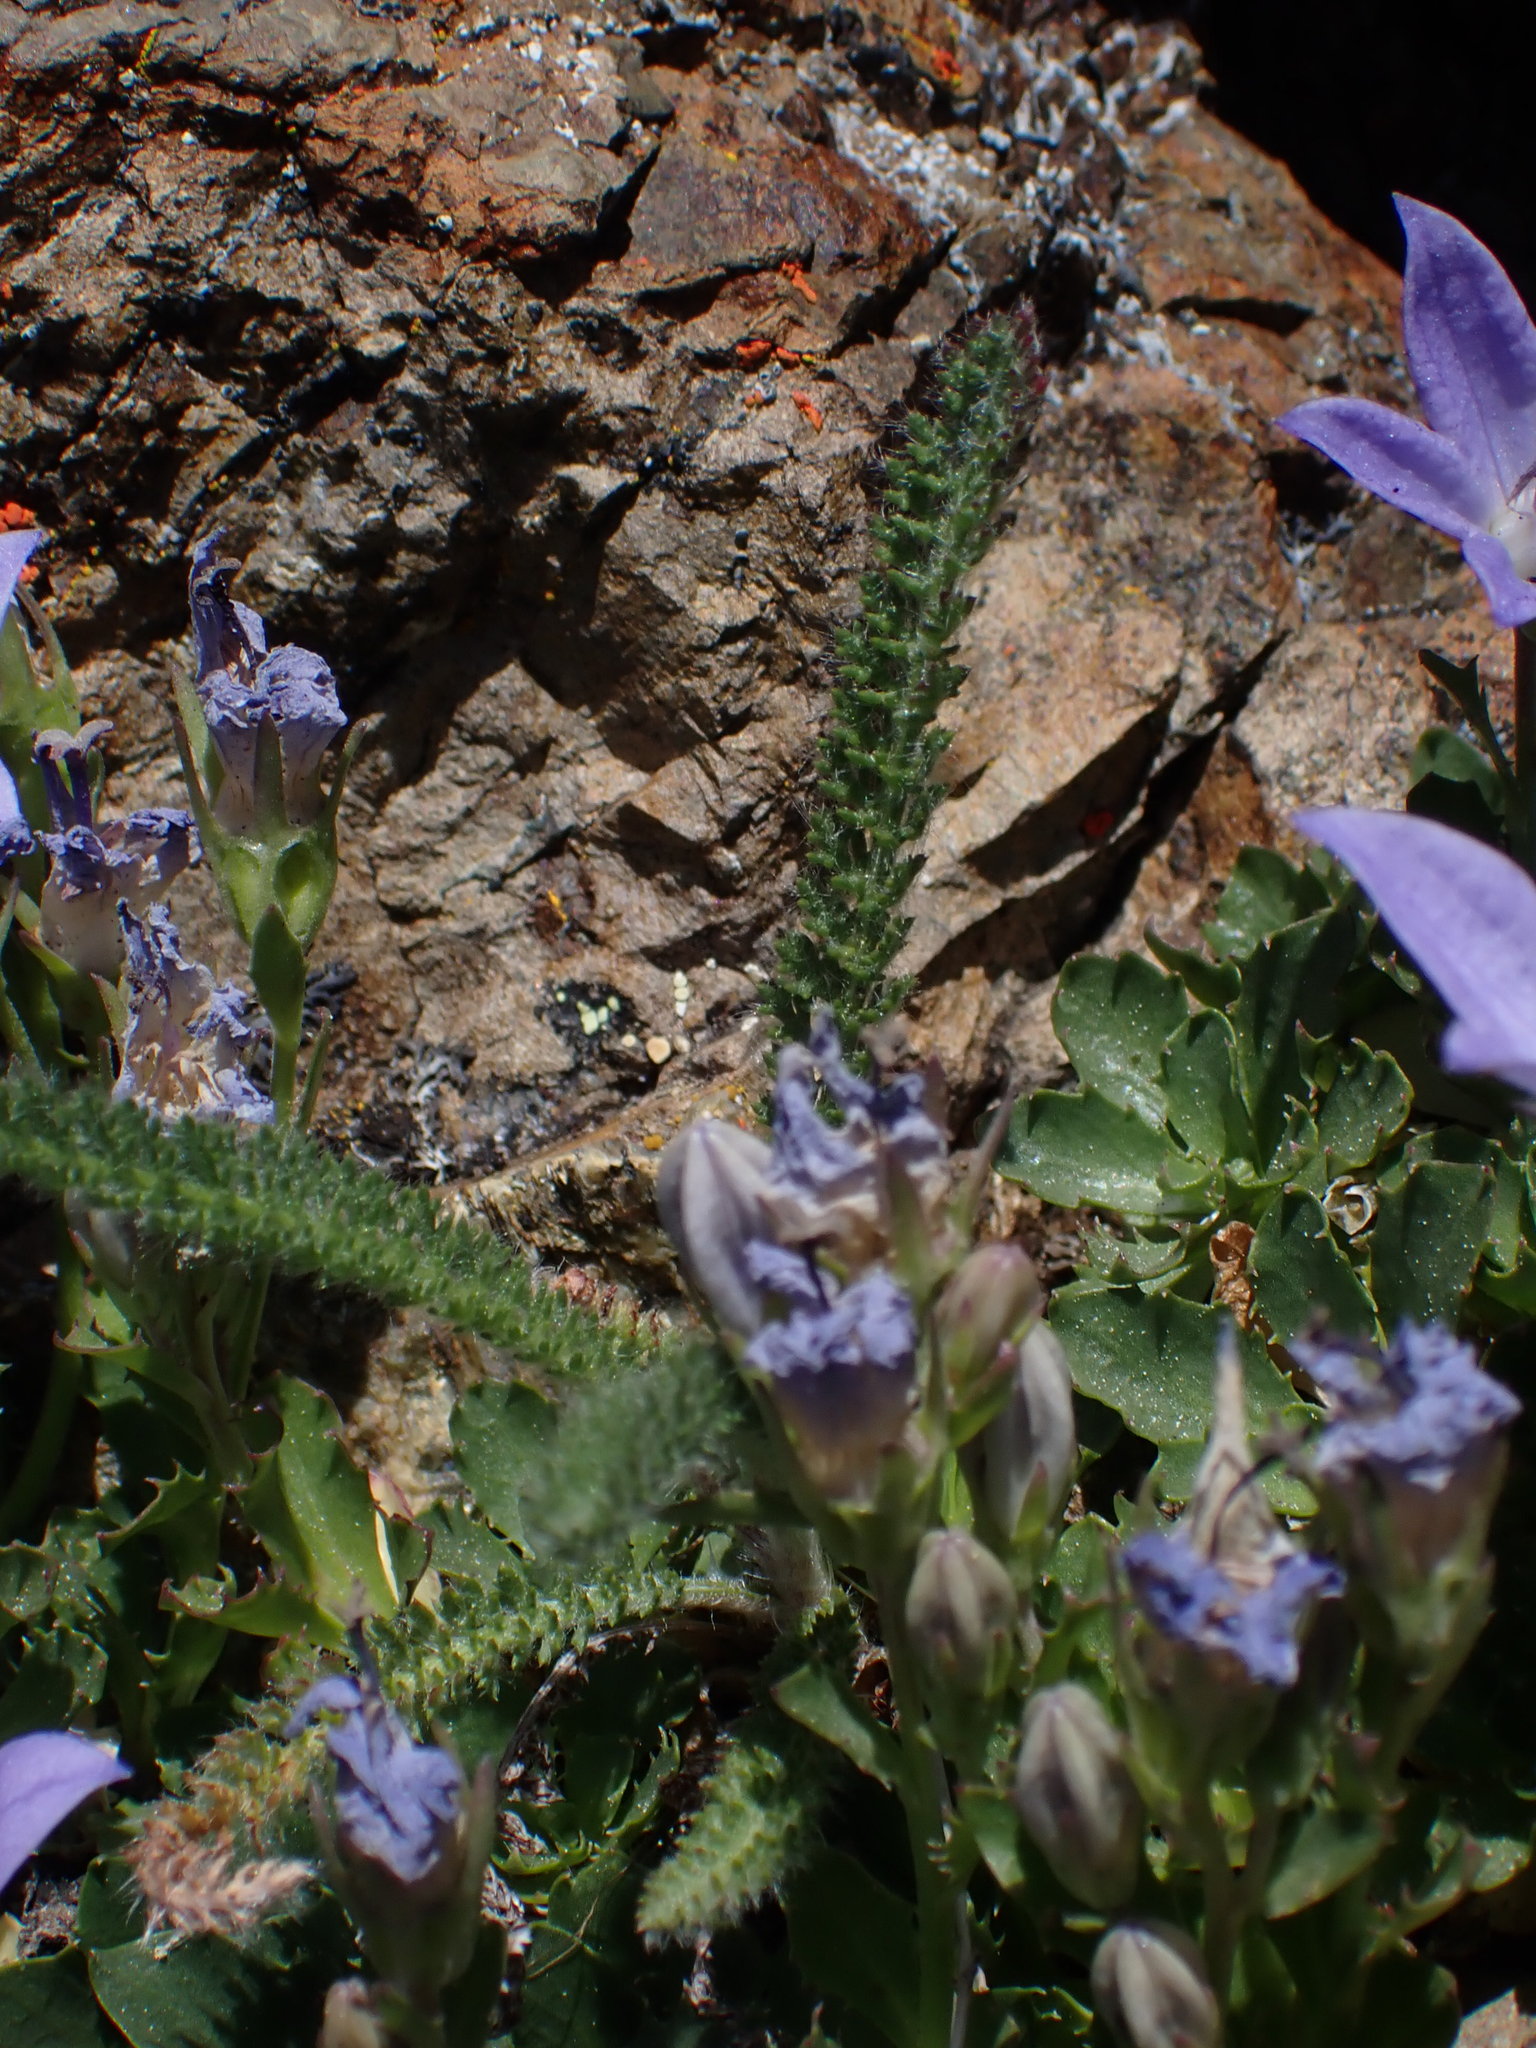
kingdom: Plantae
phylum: Tracheophyta
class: Magnoliopsida
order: Asterales
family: Asteraceae
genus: Achillea
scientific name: Achillea millefolium
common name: Yarrow
